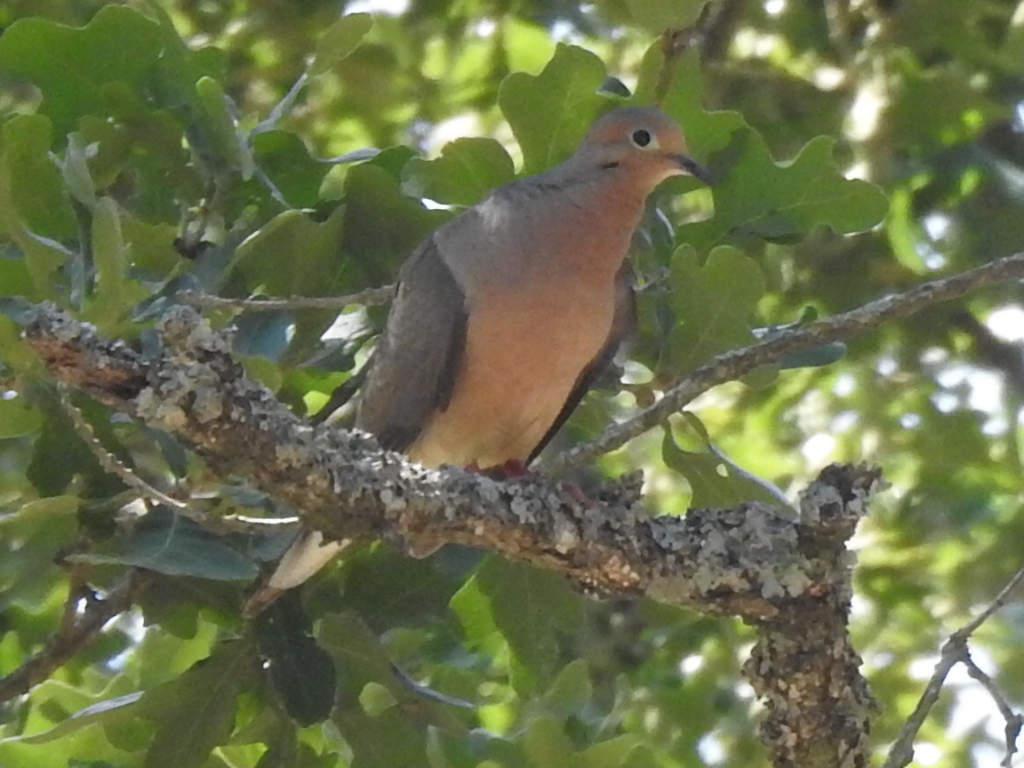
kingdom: Animalia
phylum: Chordata
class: Aves
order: Columbiformes
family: Columbidae
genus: Zenaida
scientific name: Zenaida macroura
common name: Mourning dove
